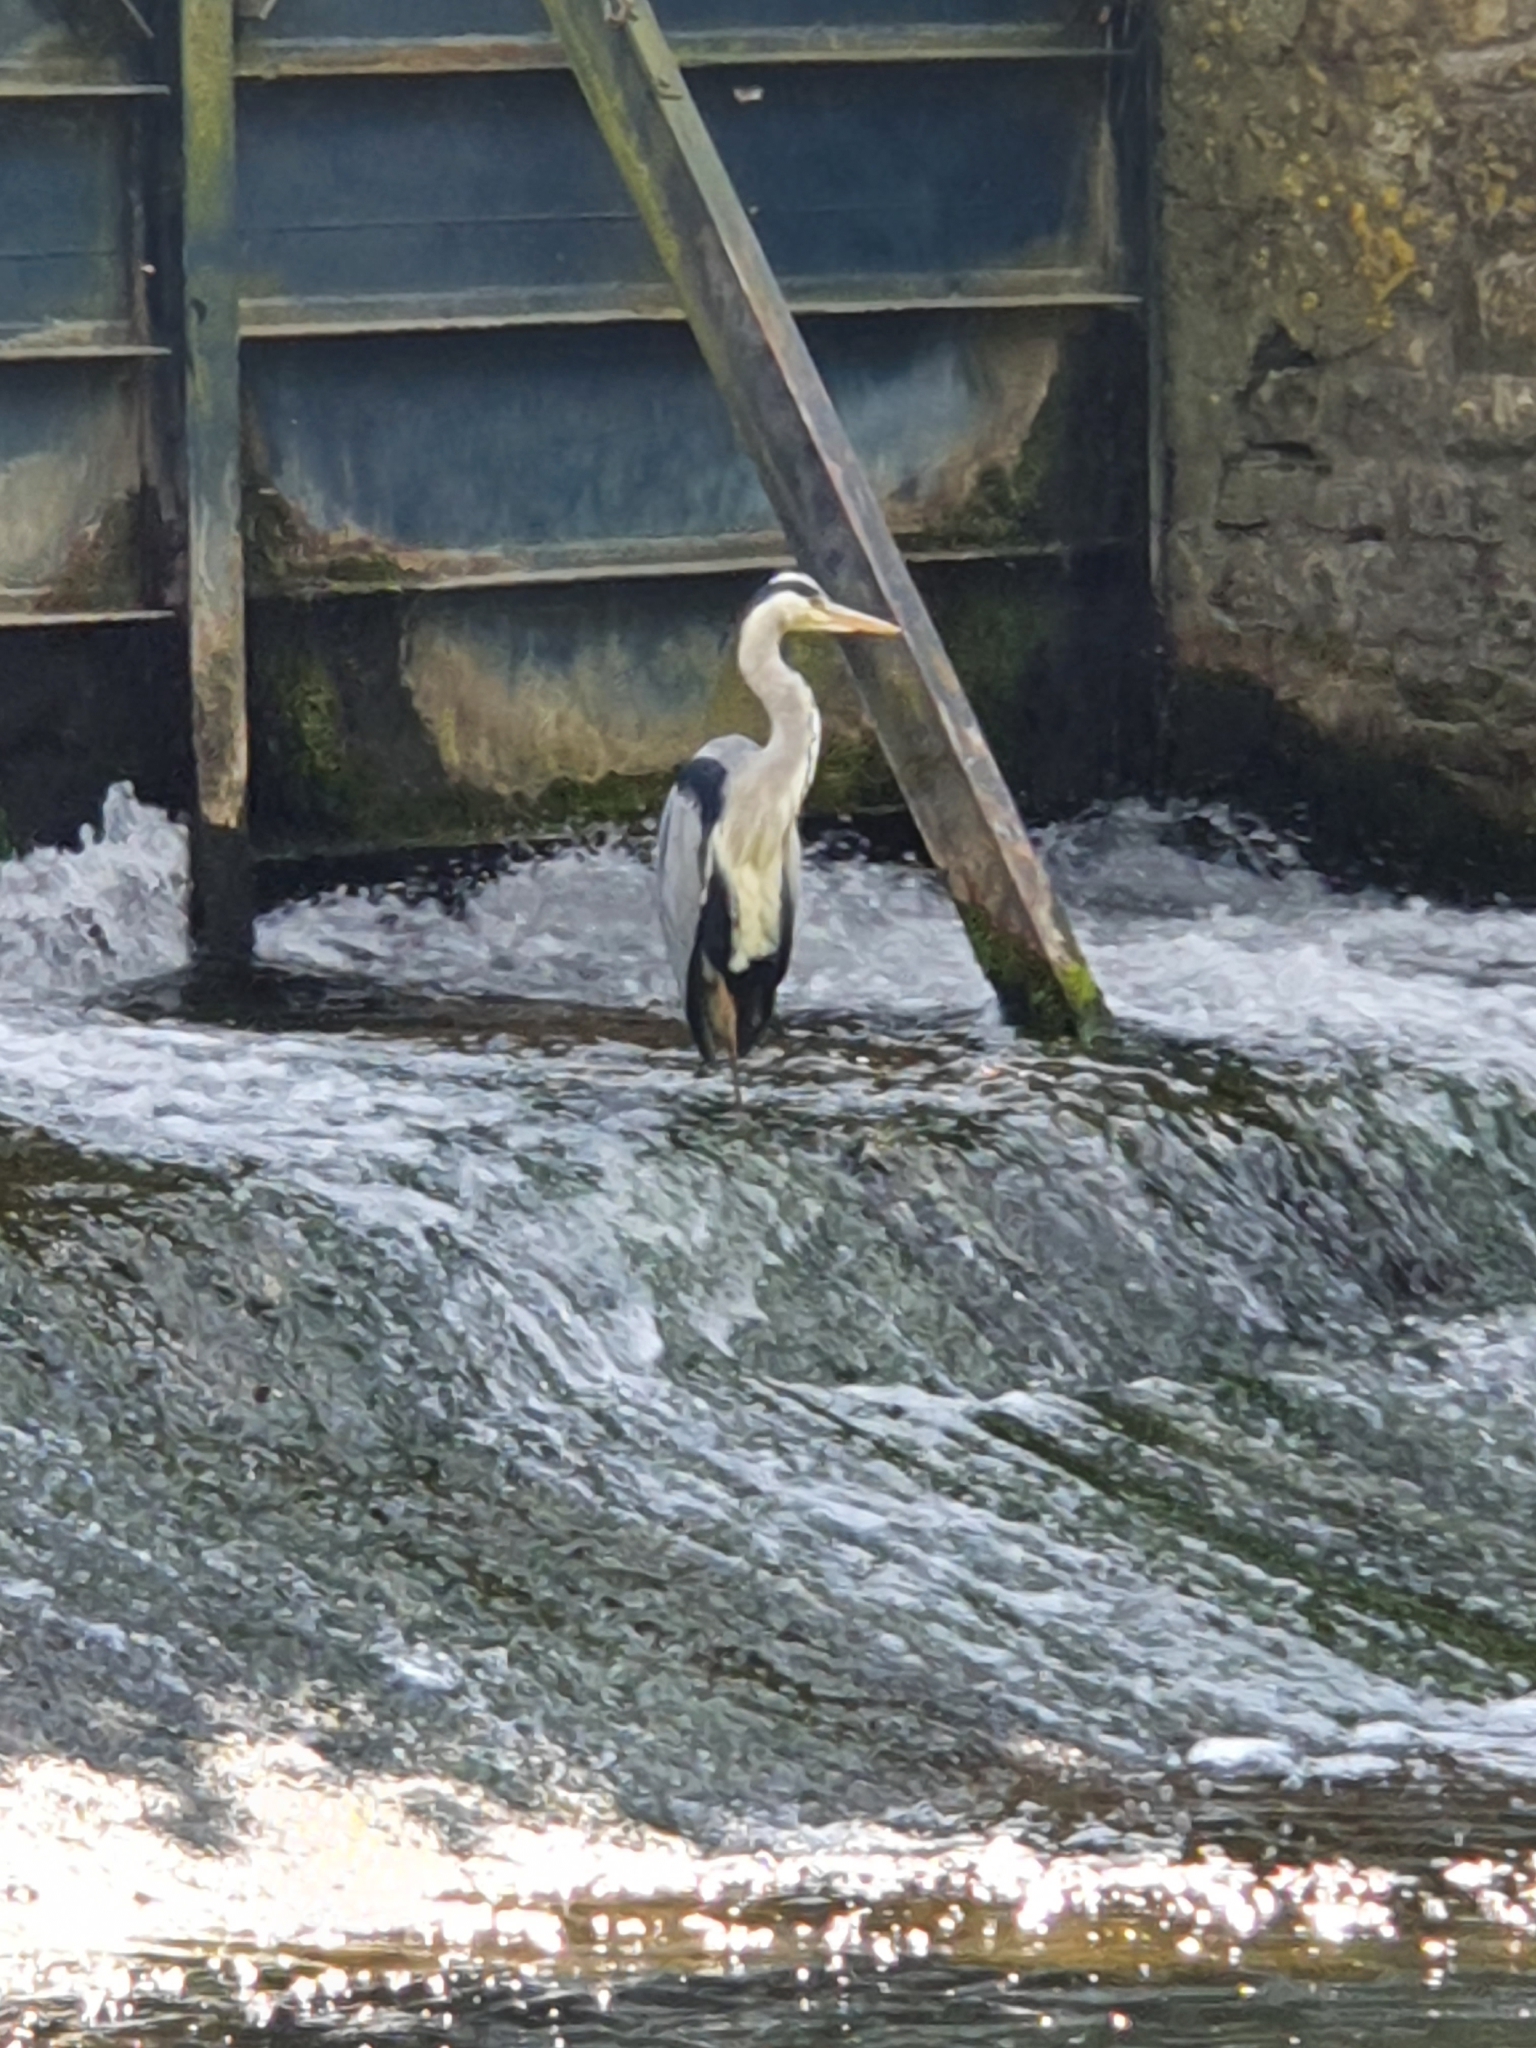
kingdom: Animalia
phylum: Chordata
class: Aves
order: Pelecaniformes
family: Ardeidae
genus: Ardea
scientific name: Ardea cinerea
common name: Grey heron
